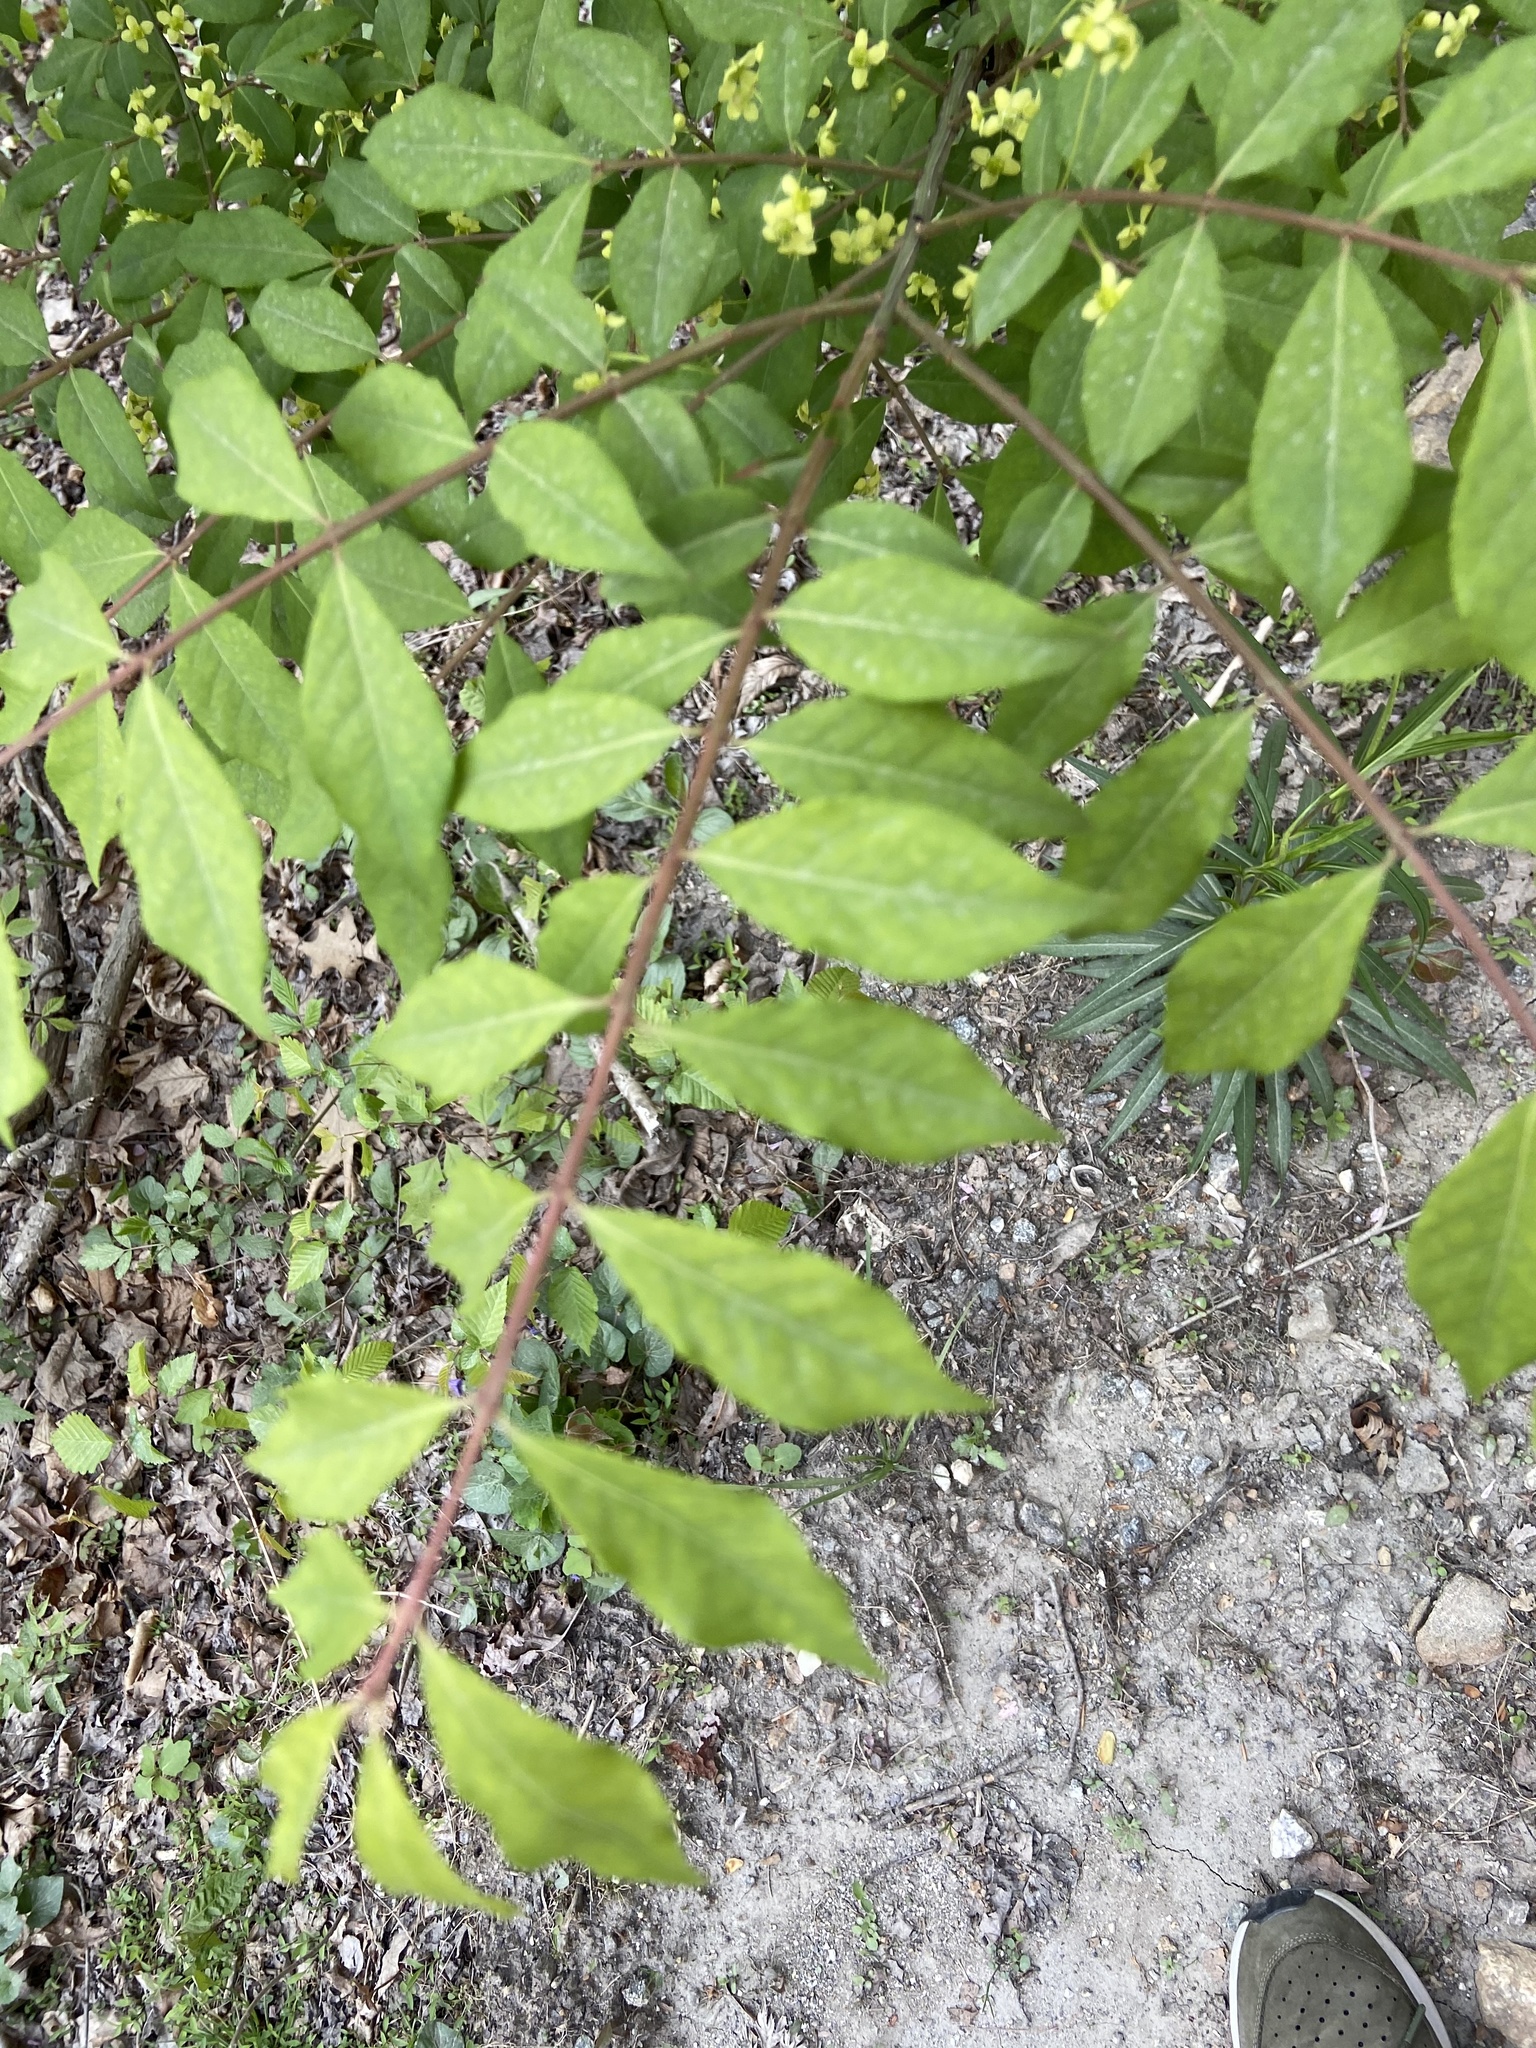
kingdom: Plantae
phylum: Tracheophyta
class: Magnoliopsida
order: Celastrales
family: Celastraceae
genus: Euonymus
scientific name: Euonymus alatus
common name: Winged euonymus
